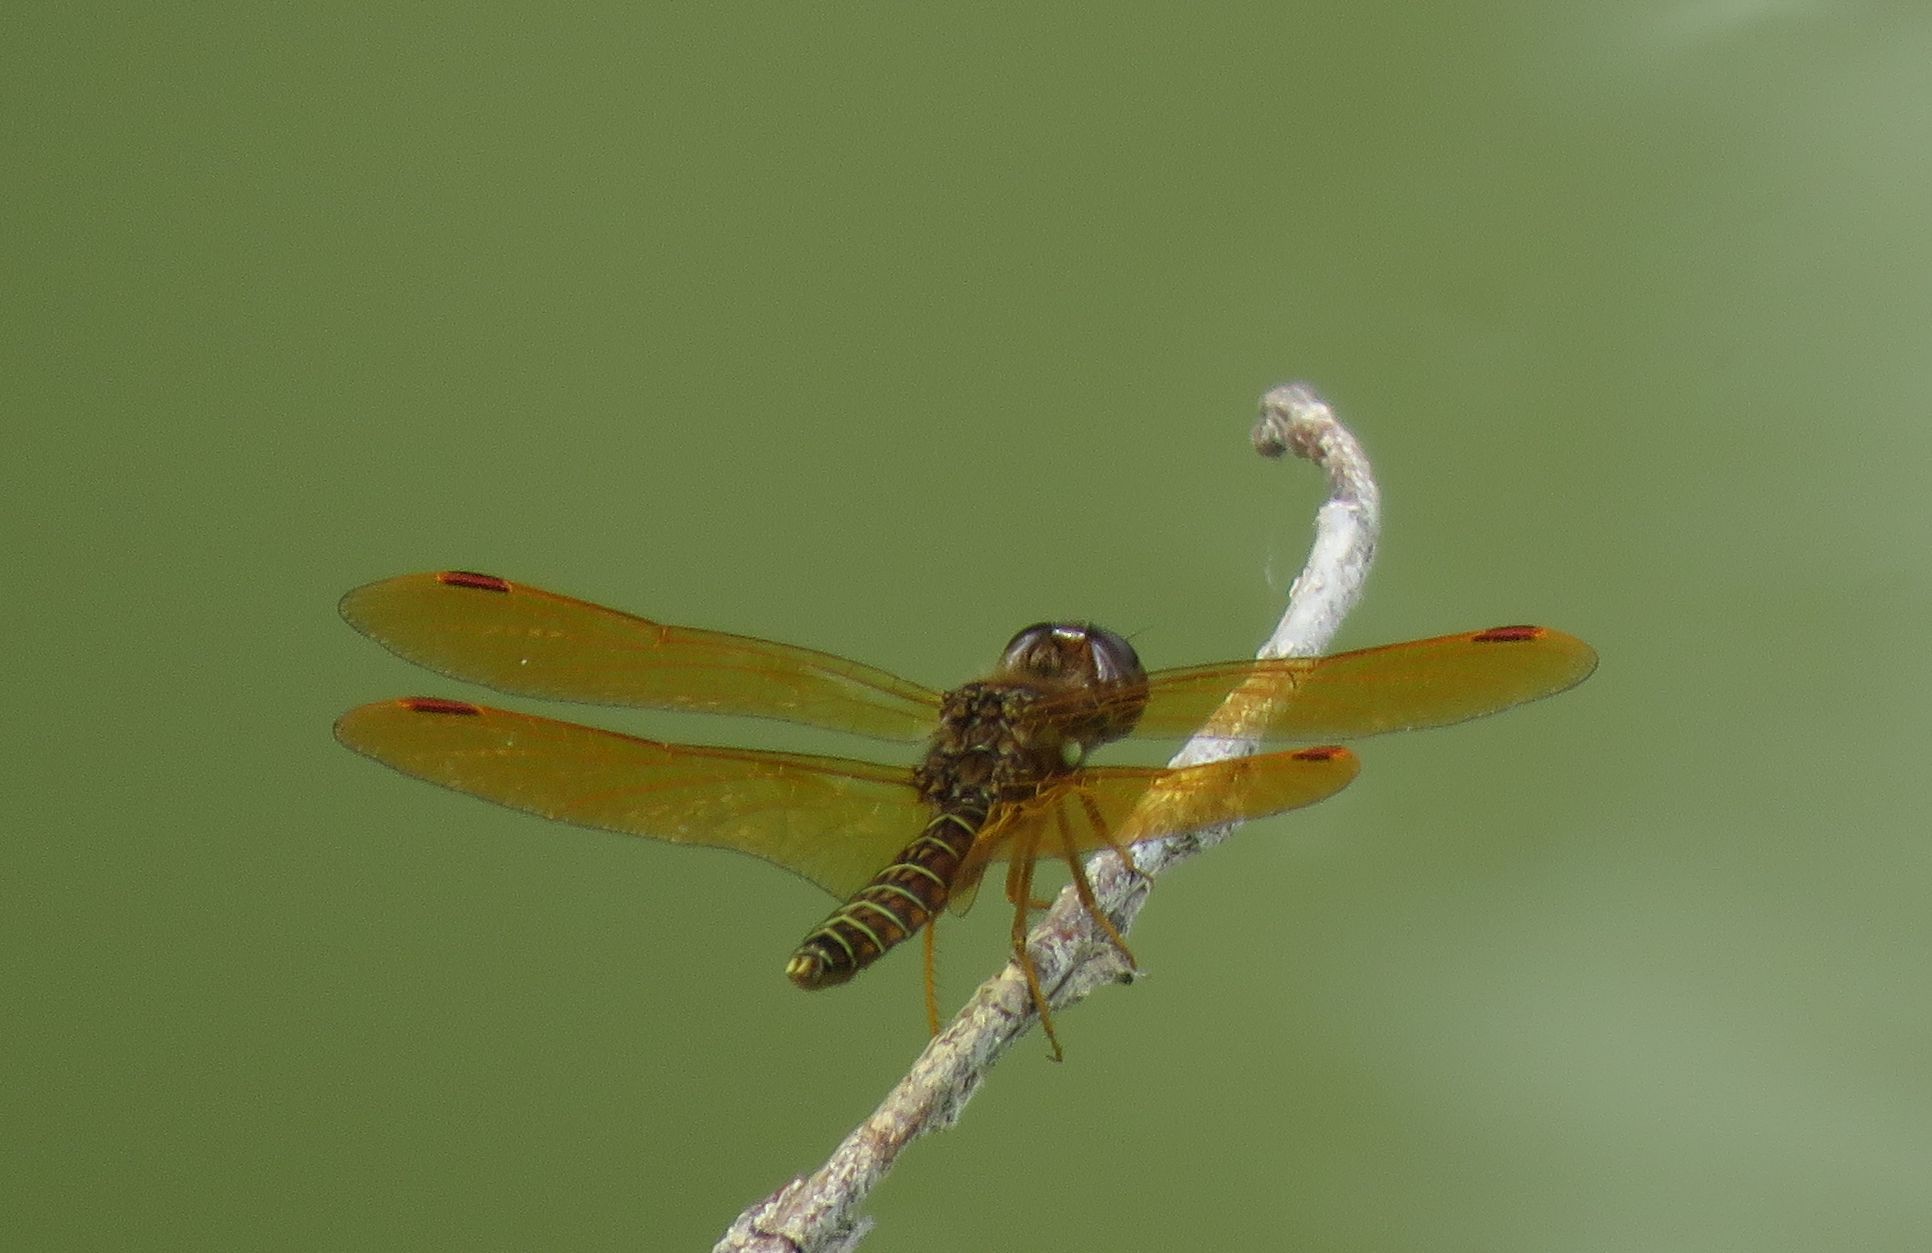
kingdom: Animalia
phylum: Arthropoda
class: Insecta
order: Odonata
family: Libellulidae
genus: Perithemis
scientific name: Perithemis tenera
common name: Eastern amberwing
